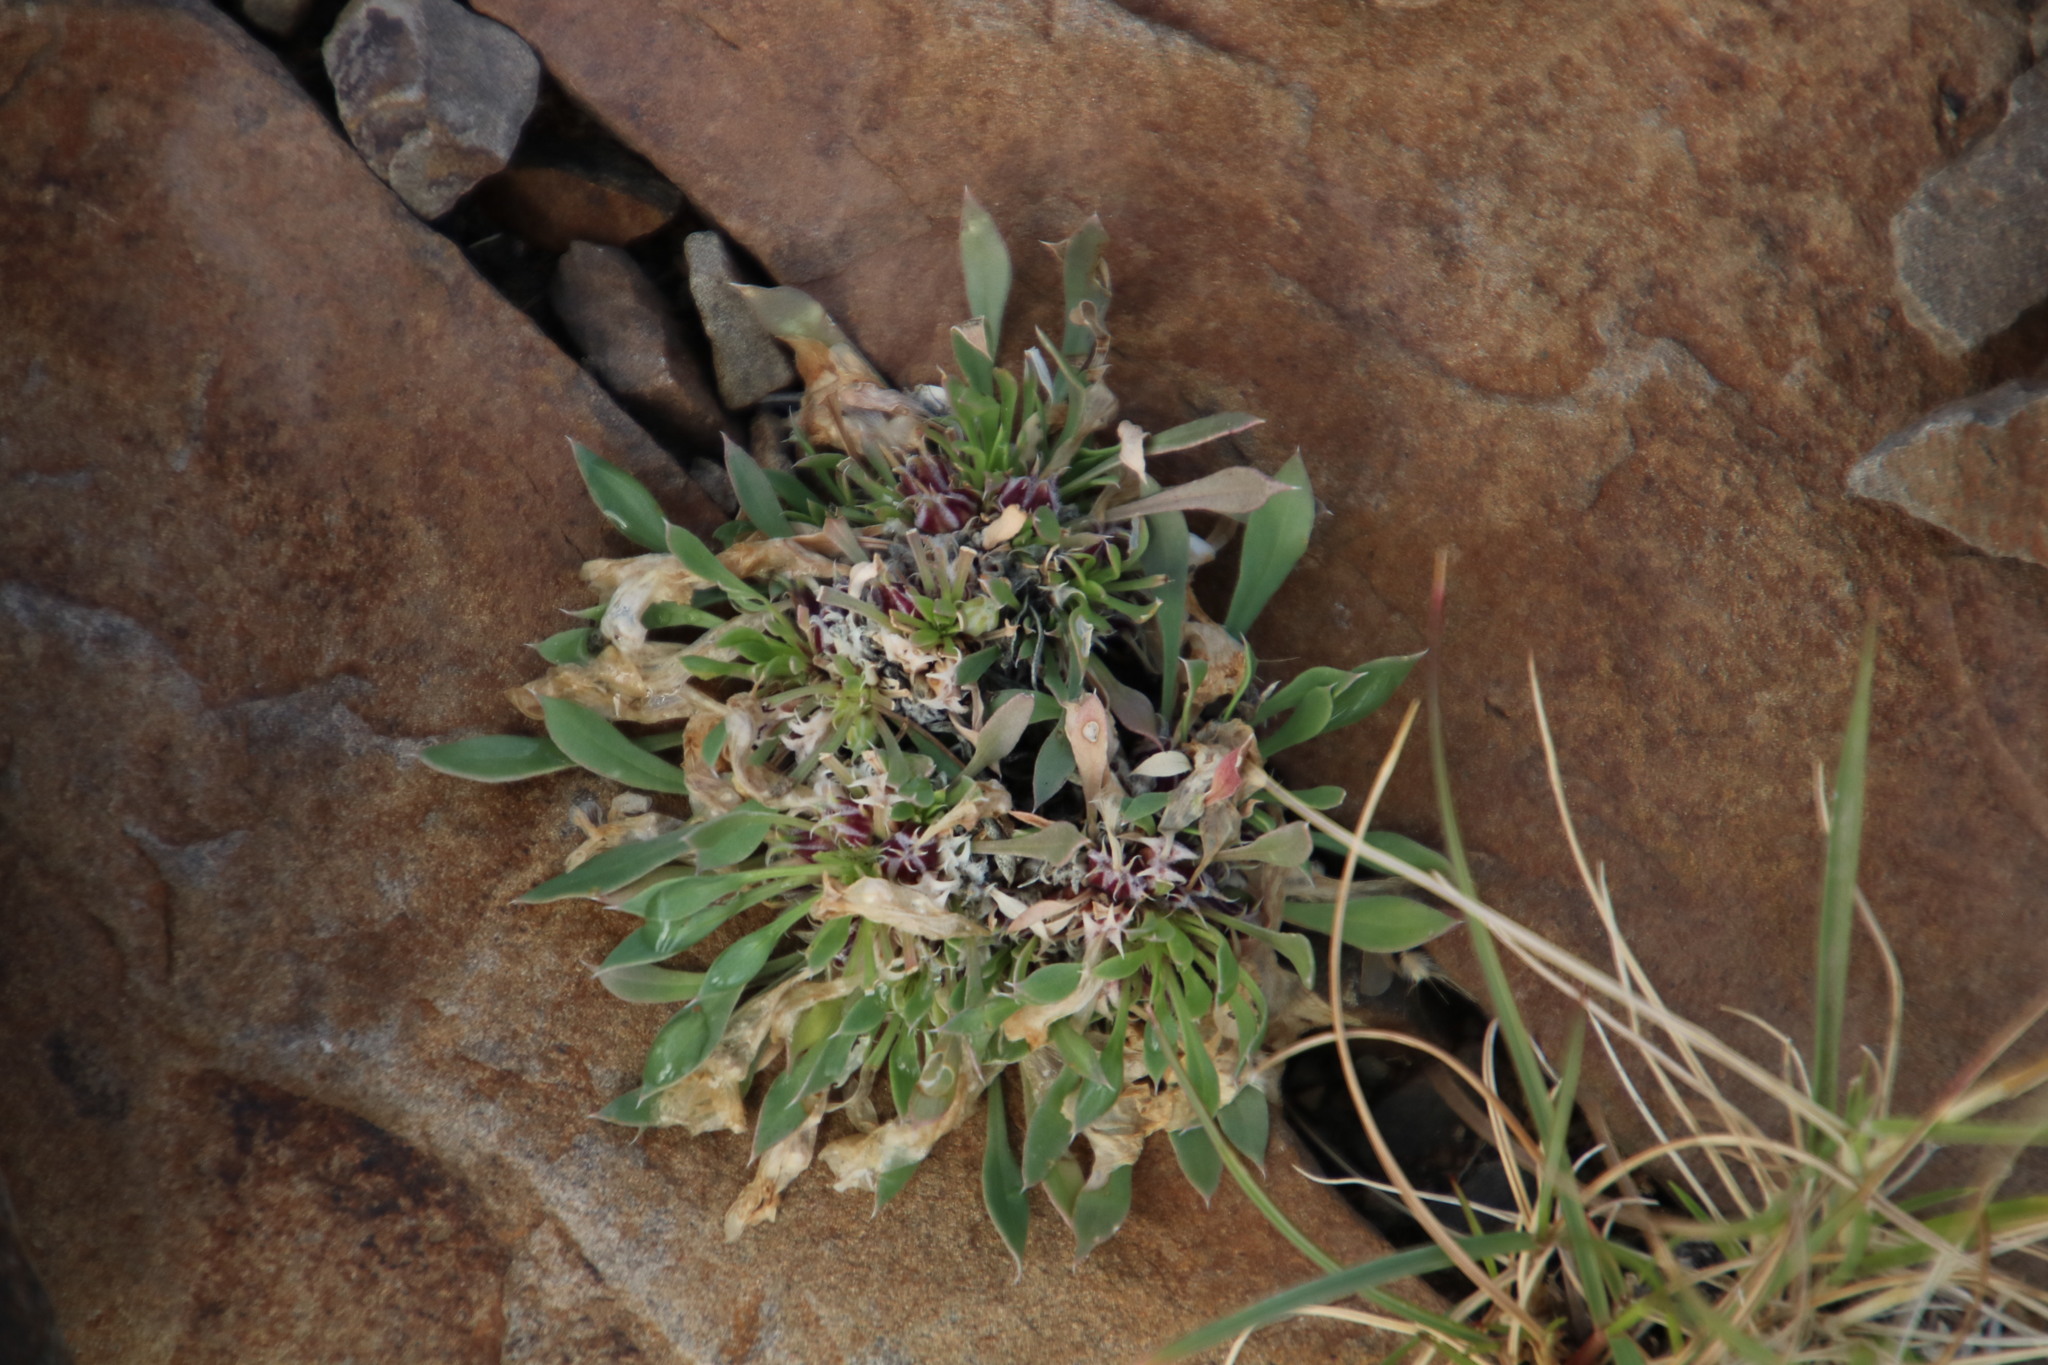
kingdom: Plantae
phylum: Tracheophyta
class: Magnoliopsida
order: Lamiales
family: Scrophulariaceae
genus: Aptosimum
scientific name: Aptosimum indivisum
